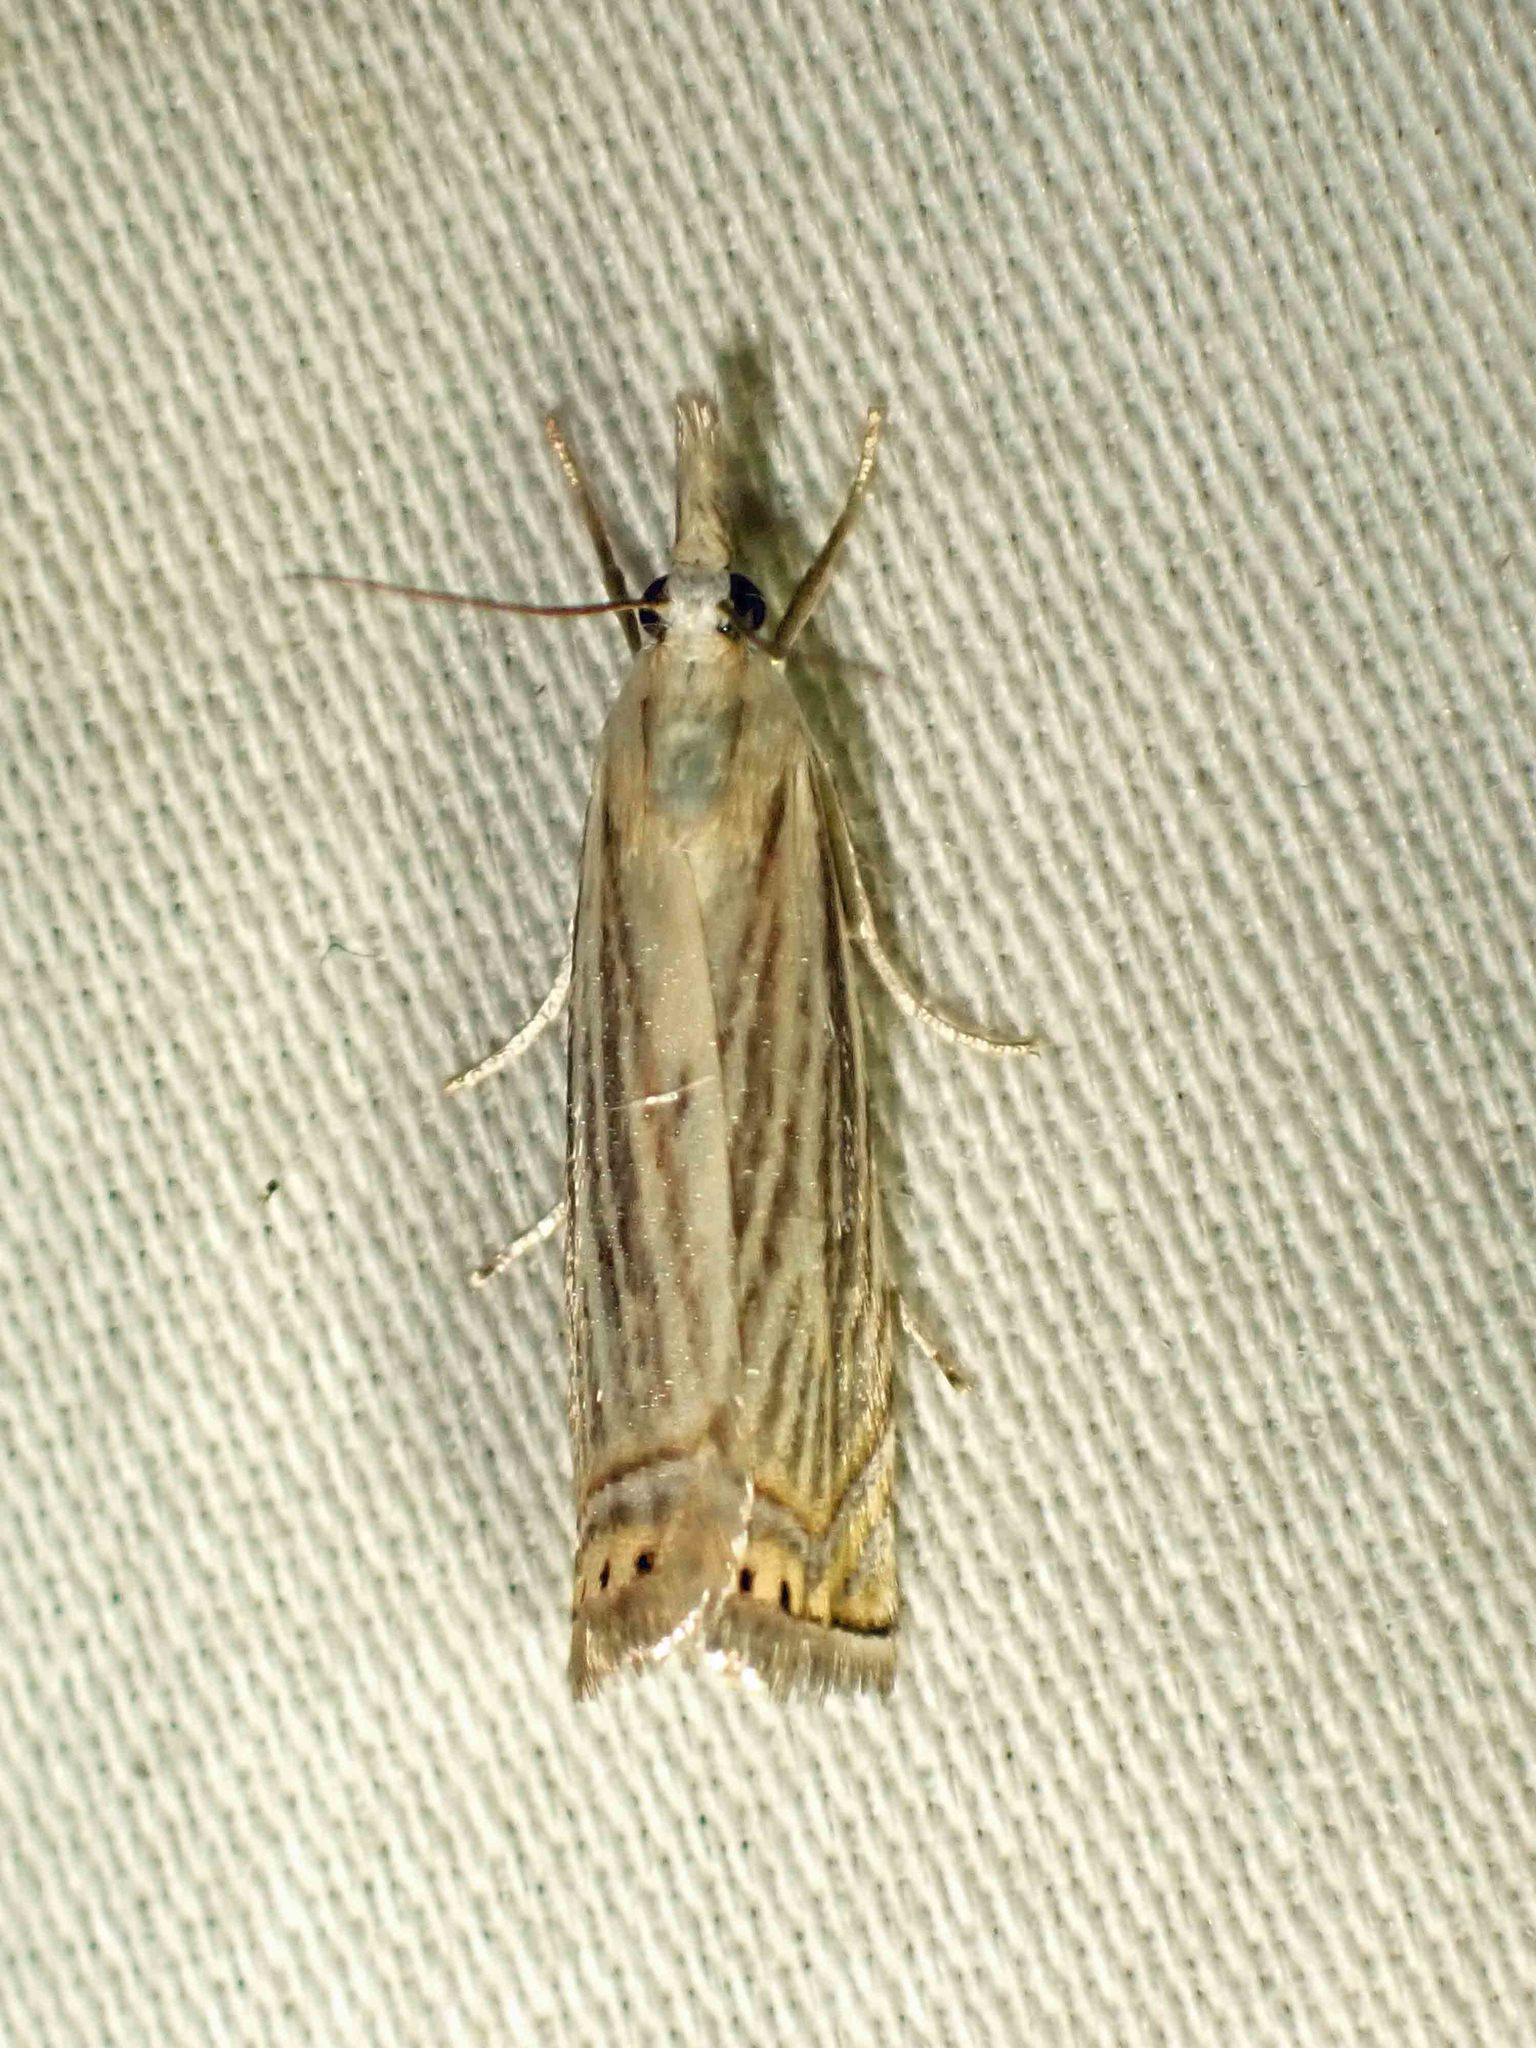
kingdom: Animalia
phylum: Arthropoda
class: Insecta
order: Lepidoptera
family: Crambidae
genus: Chrysoteuchia
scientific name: Chrysoteuchia topiarius
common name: Topiary grass-veneer
